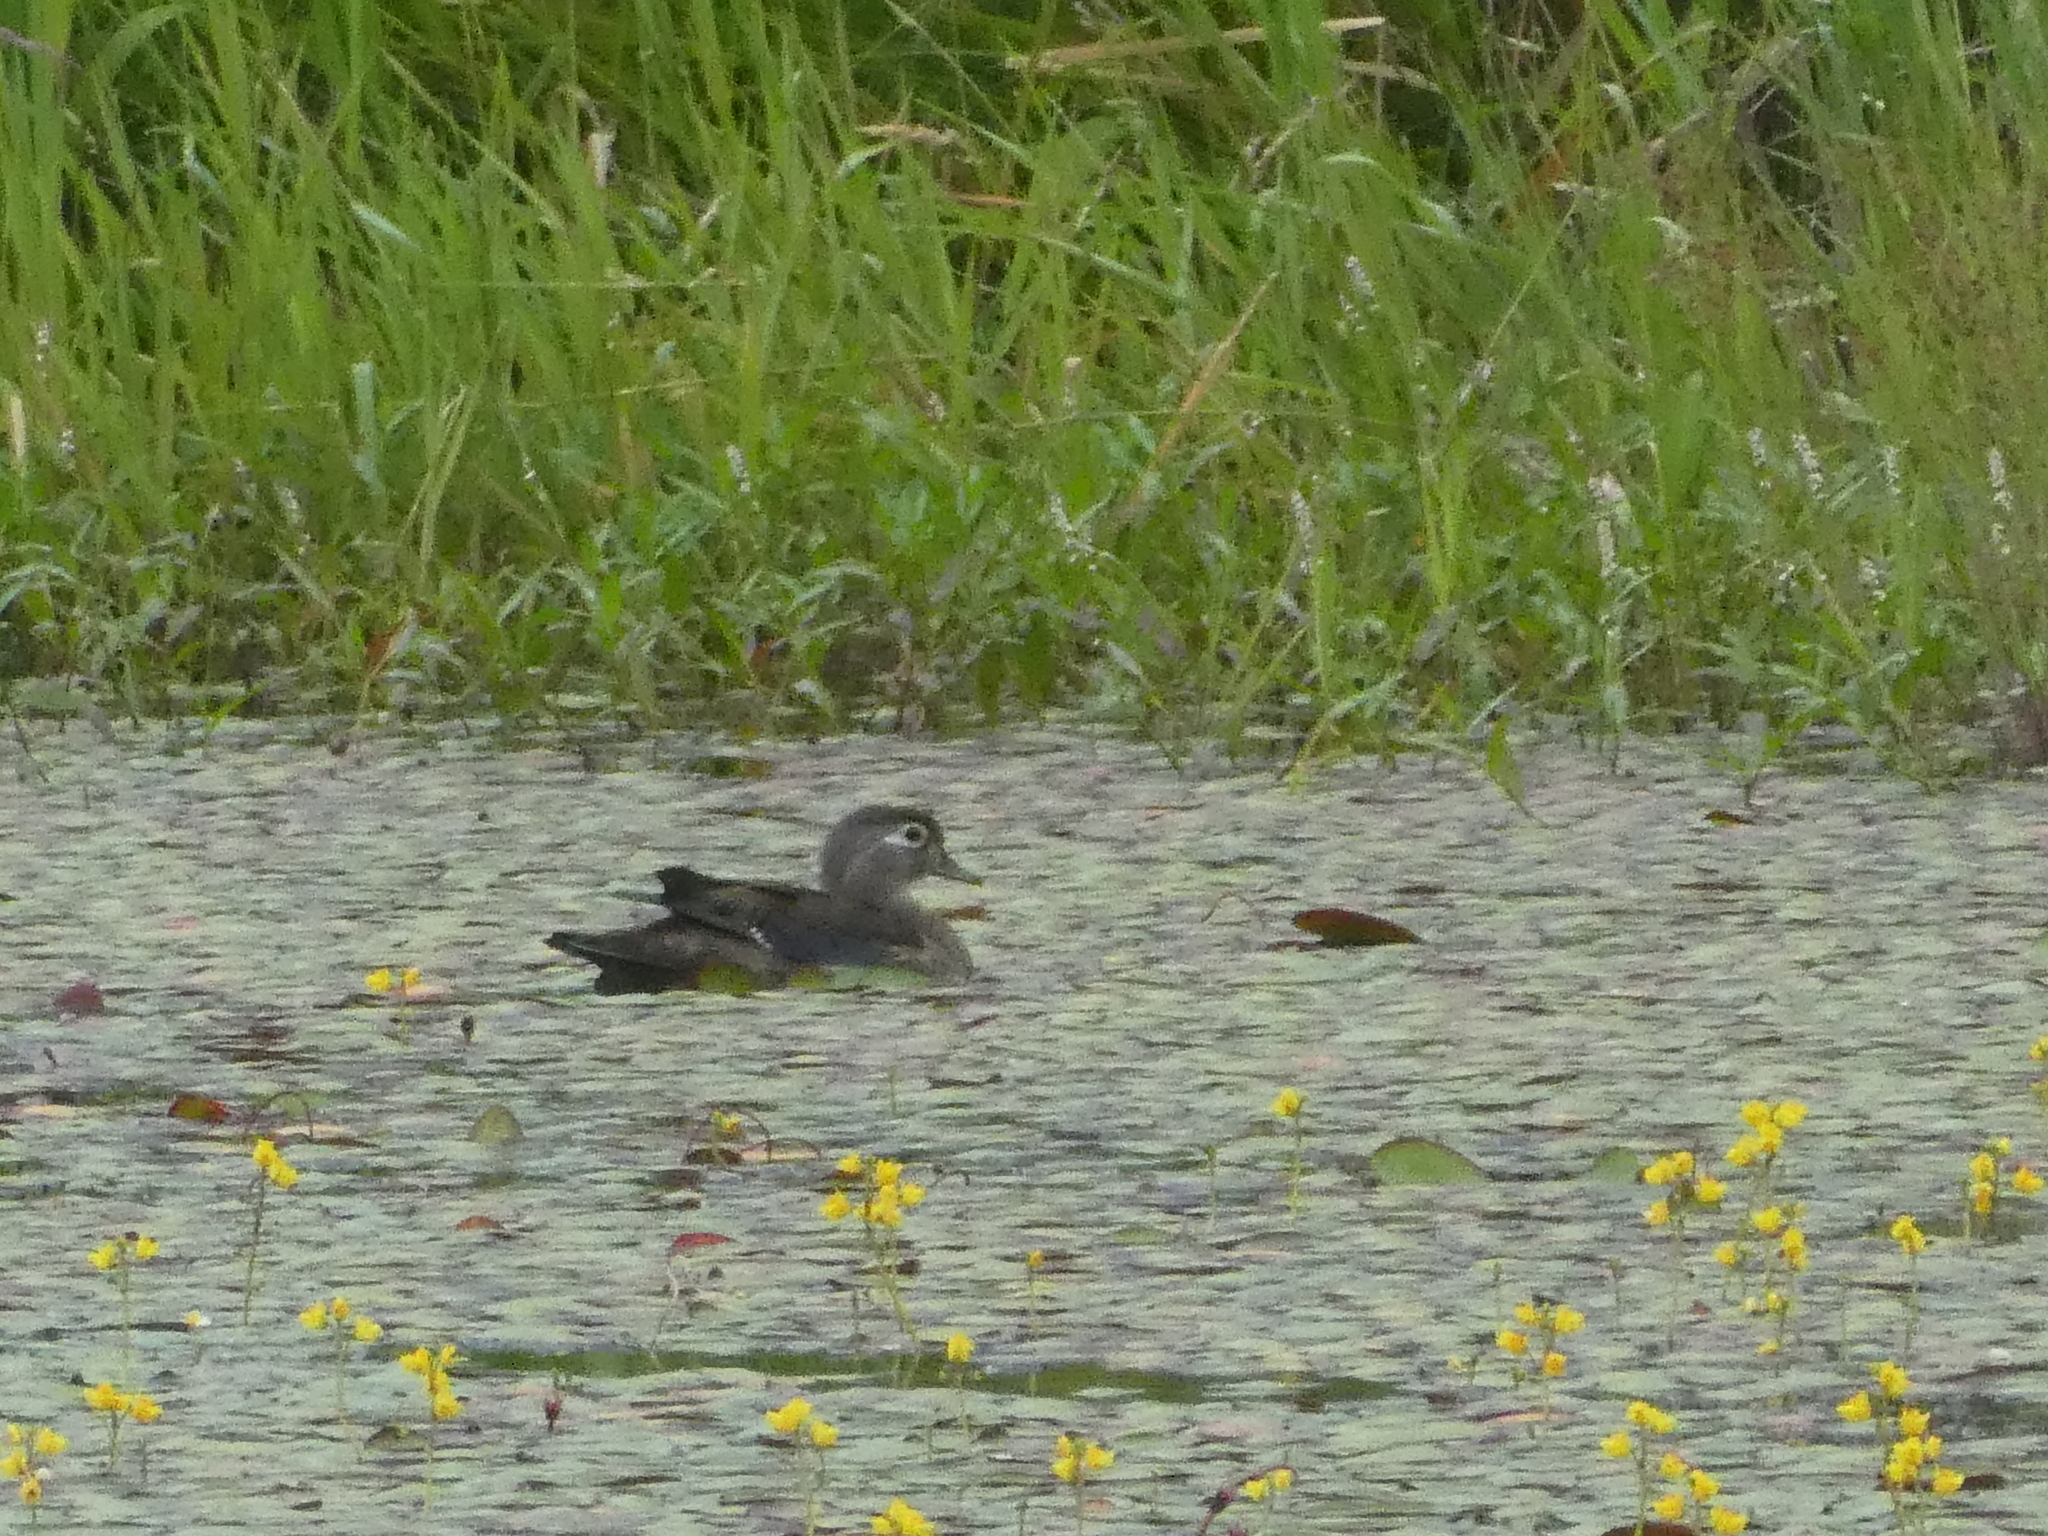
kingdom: Animalia
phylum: Chordata
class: Aves
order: Anseriformes
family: Anatidae
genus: Aix
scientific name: Aix sponsa
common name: Wood duck
